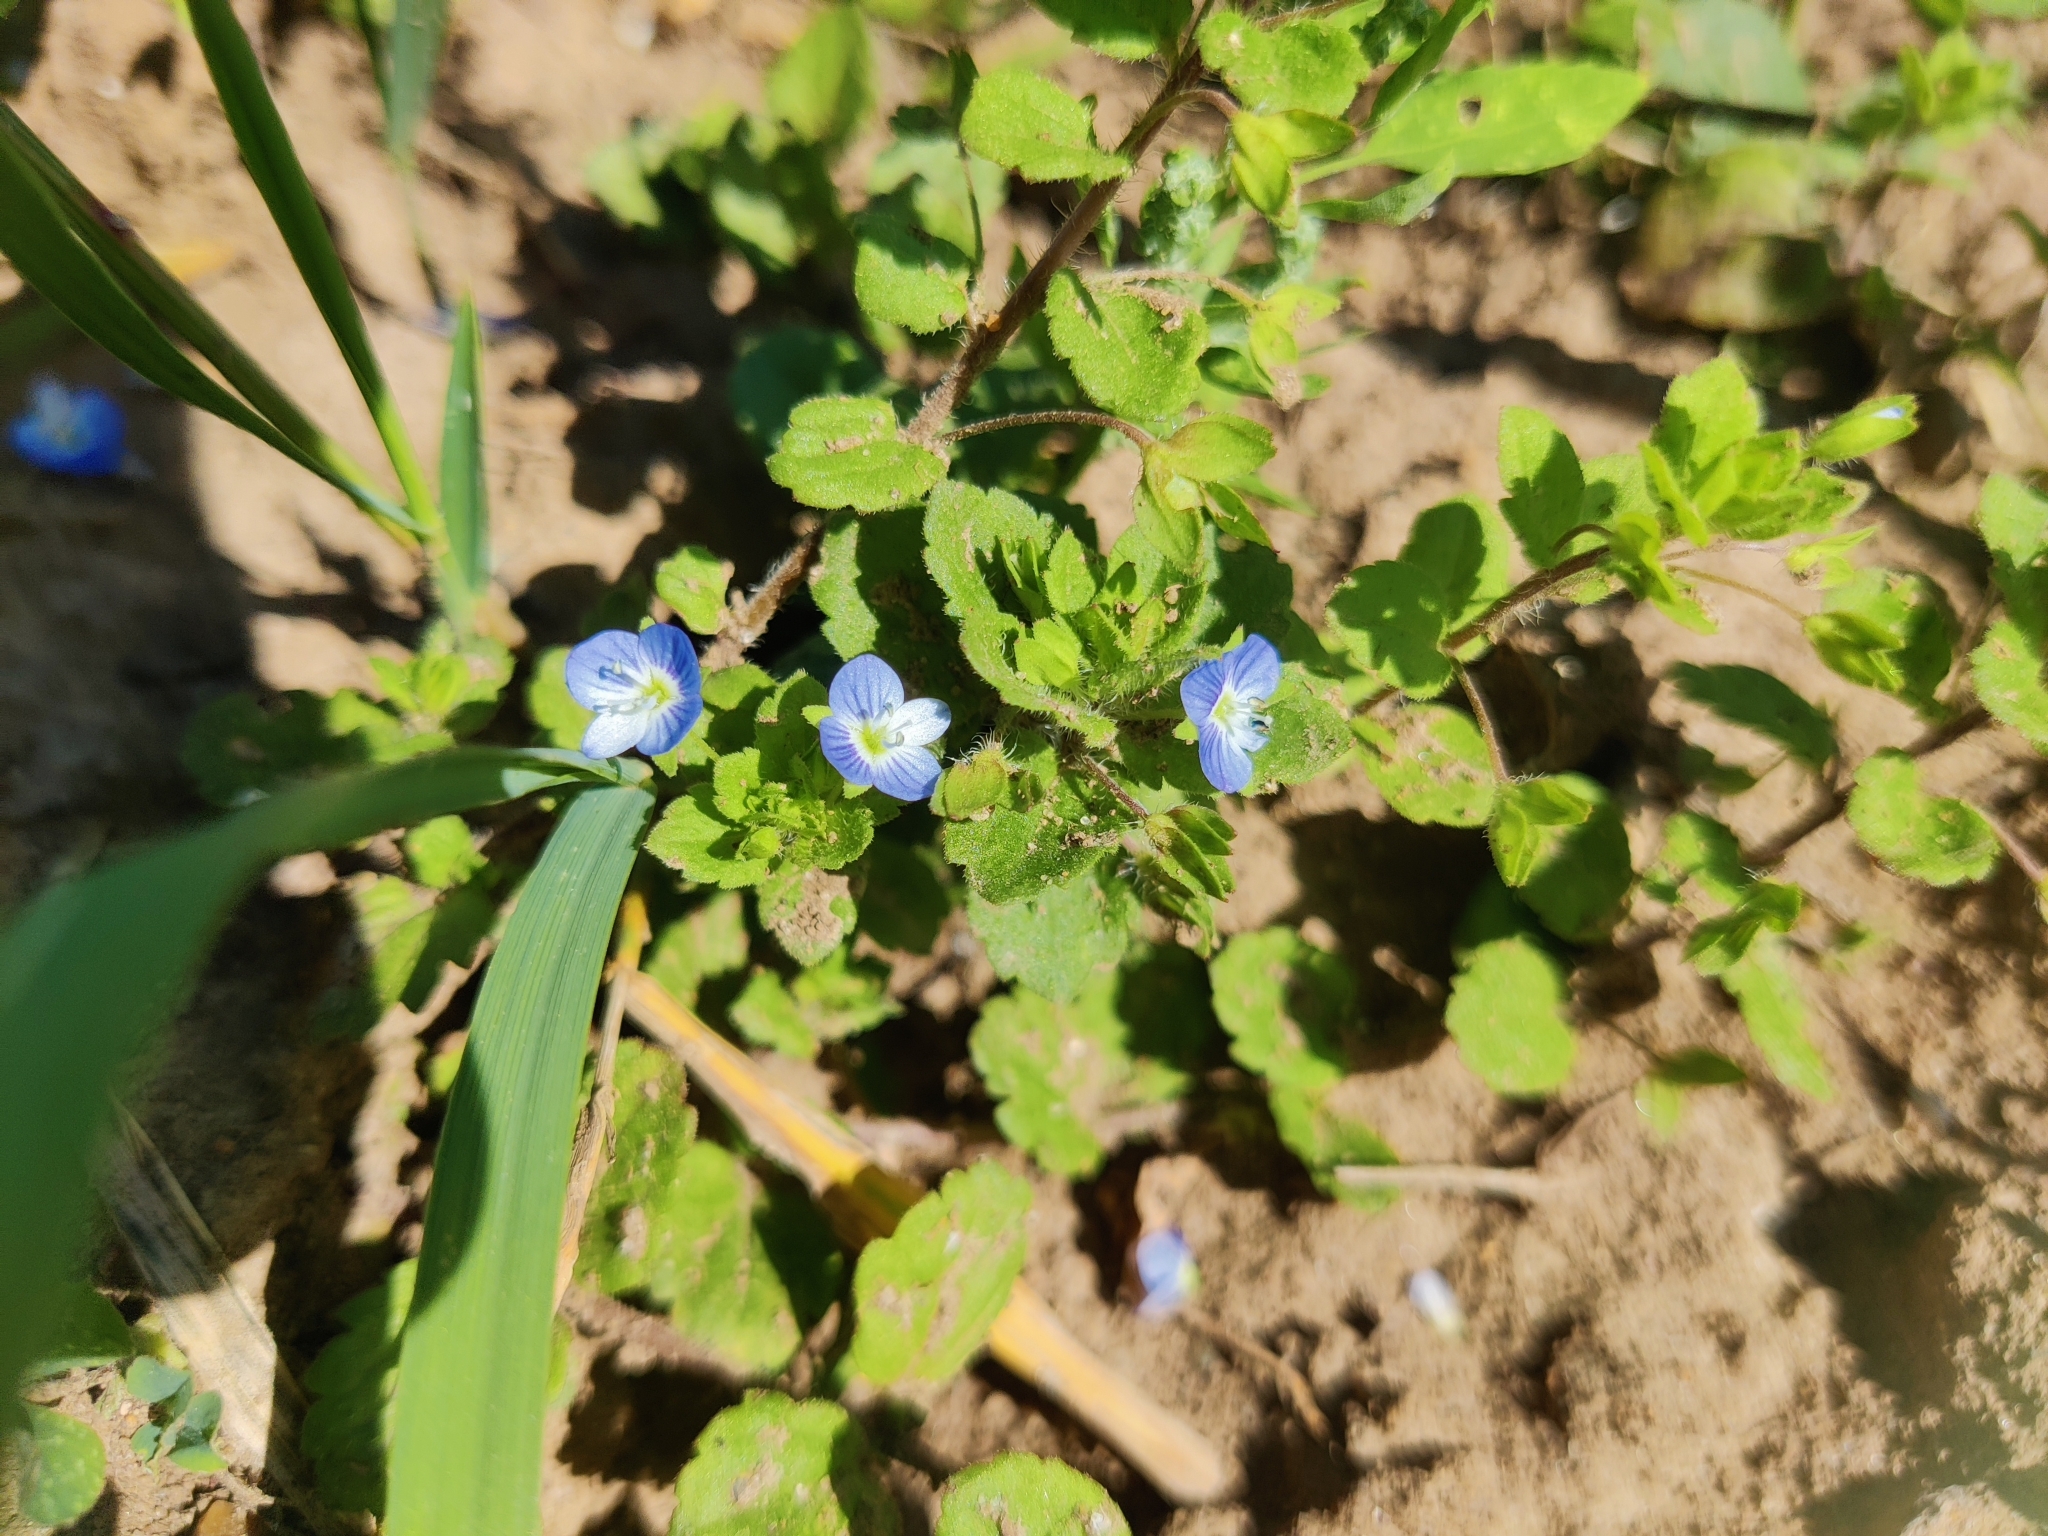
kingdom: Plantae
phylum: Tracheophyta
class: Magnoliopsida
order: Lamiales
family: Plantaginaceae
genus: Veronica
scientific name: Veronica persica
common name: Common field-speedwell
